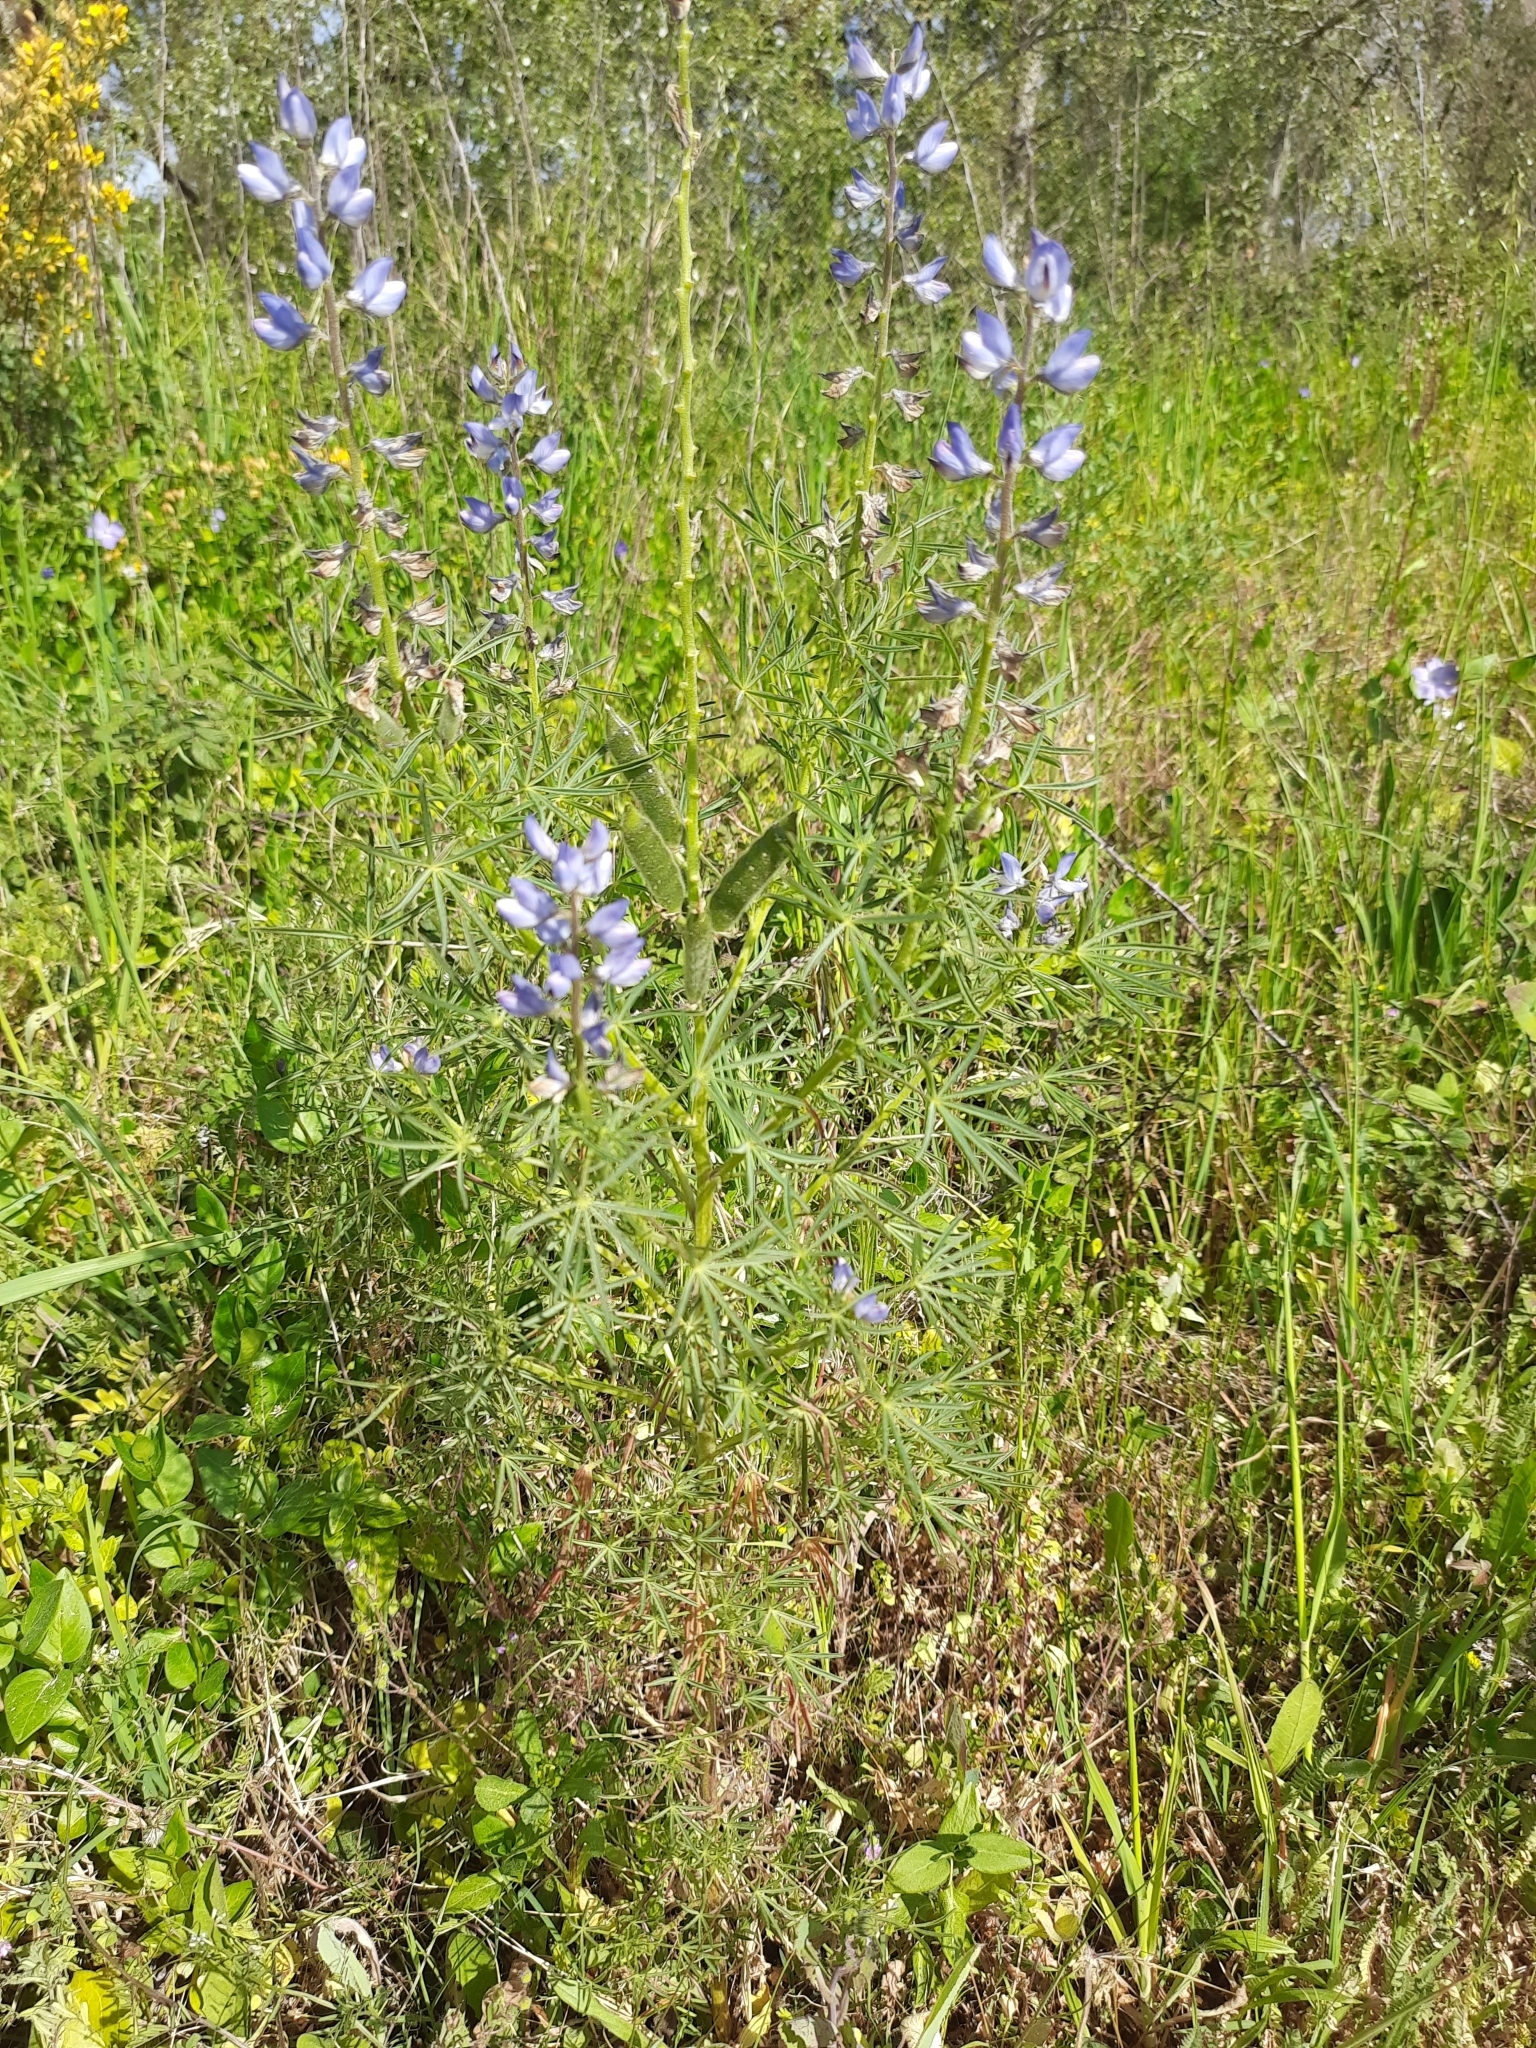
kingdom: Plantae
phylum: Tracheophyta
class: Magnoliopsida
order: Fabales
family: Fabaceae
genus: Lupinus
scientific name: Lupinus angustifolius
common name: Narrow-leaved lupin
